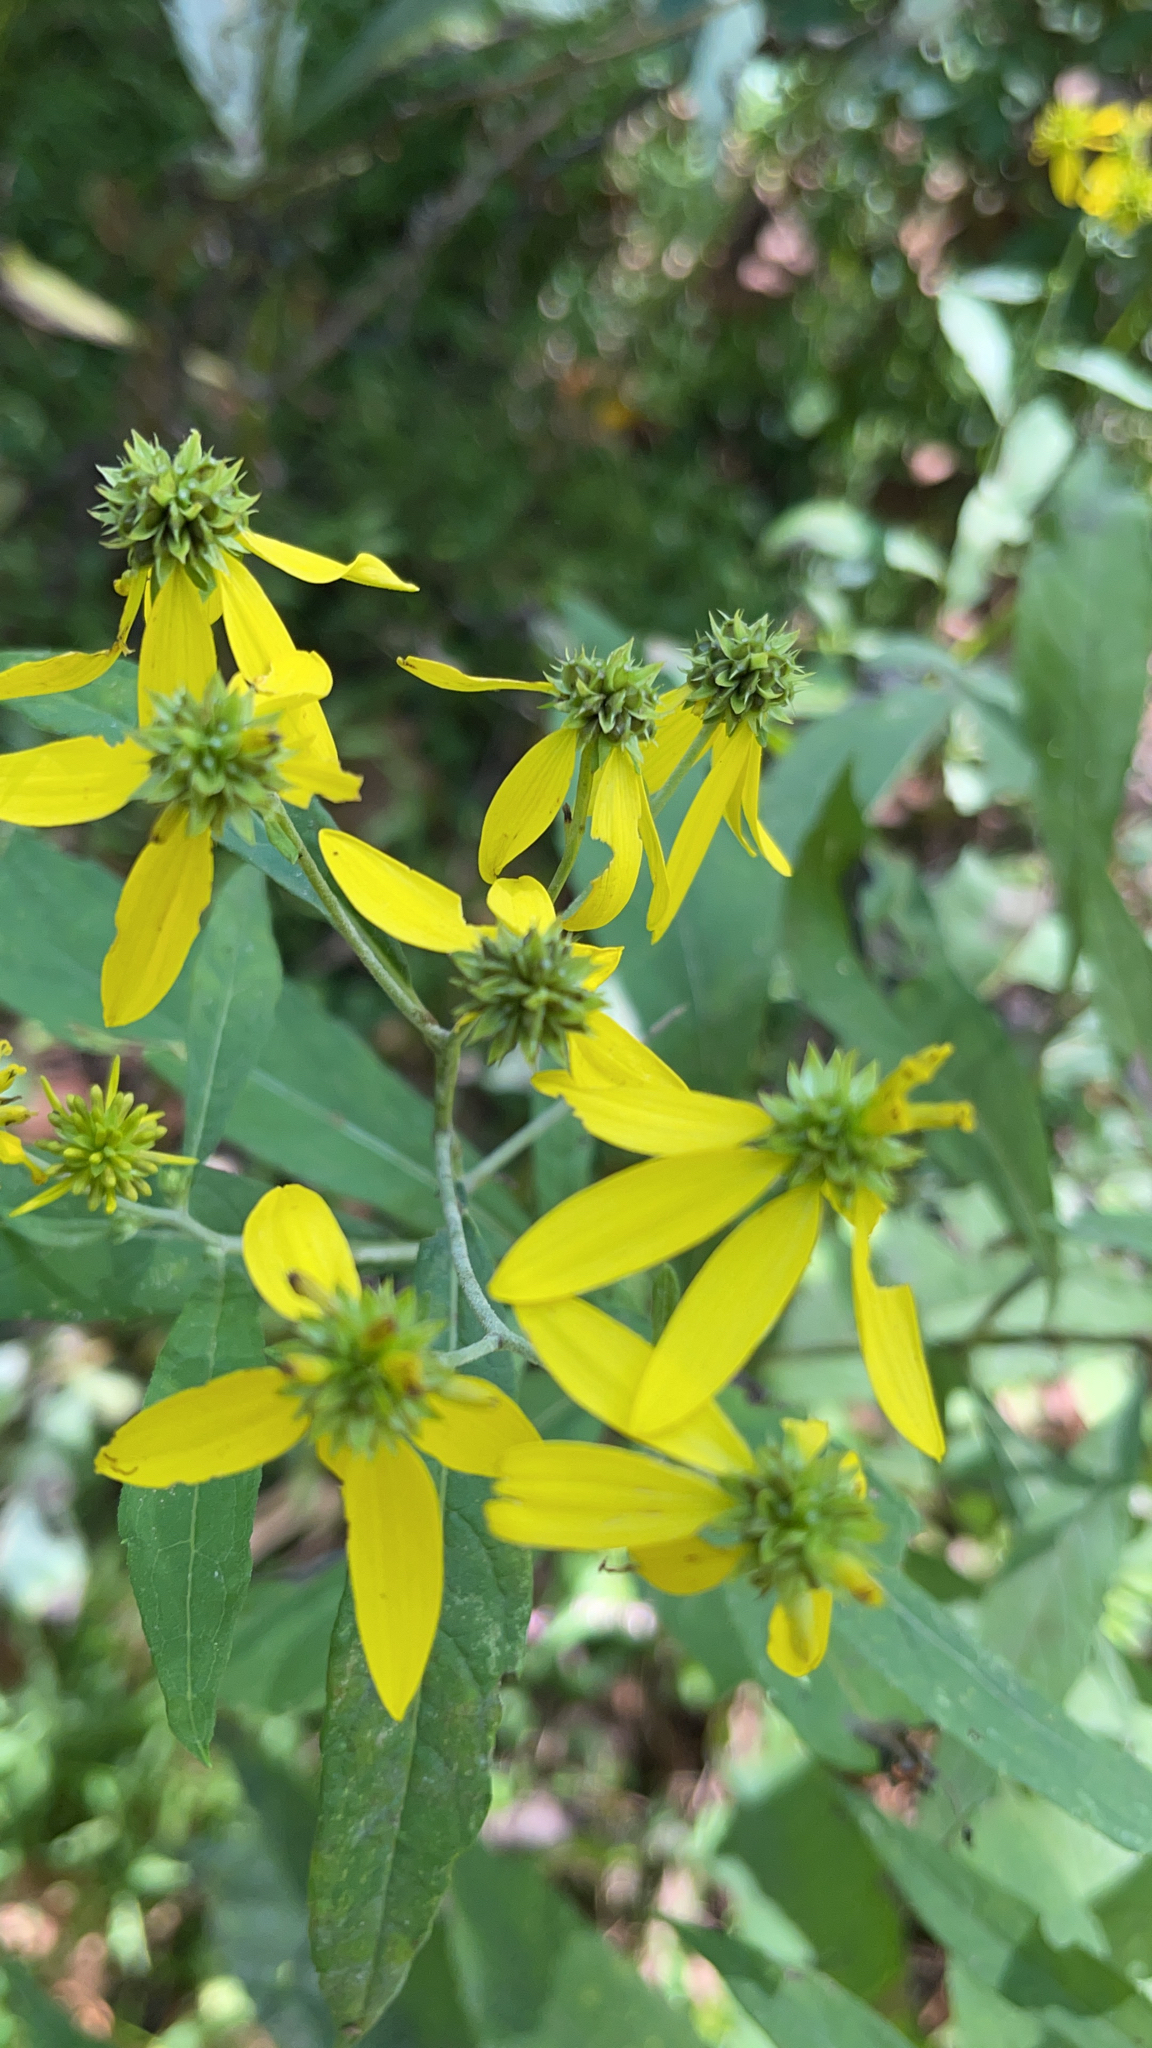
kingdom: Plantae
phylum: Tracheophyta
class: Magnoliopsida
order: Asterales
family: Asteraceae
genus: Verbesina
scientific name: Verbesina alternifolia
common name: Wingstem
